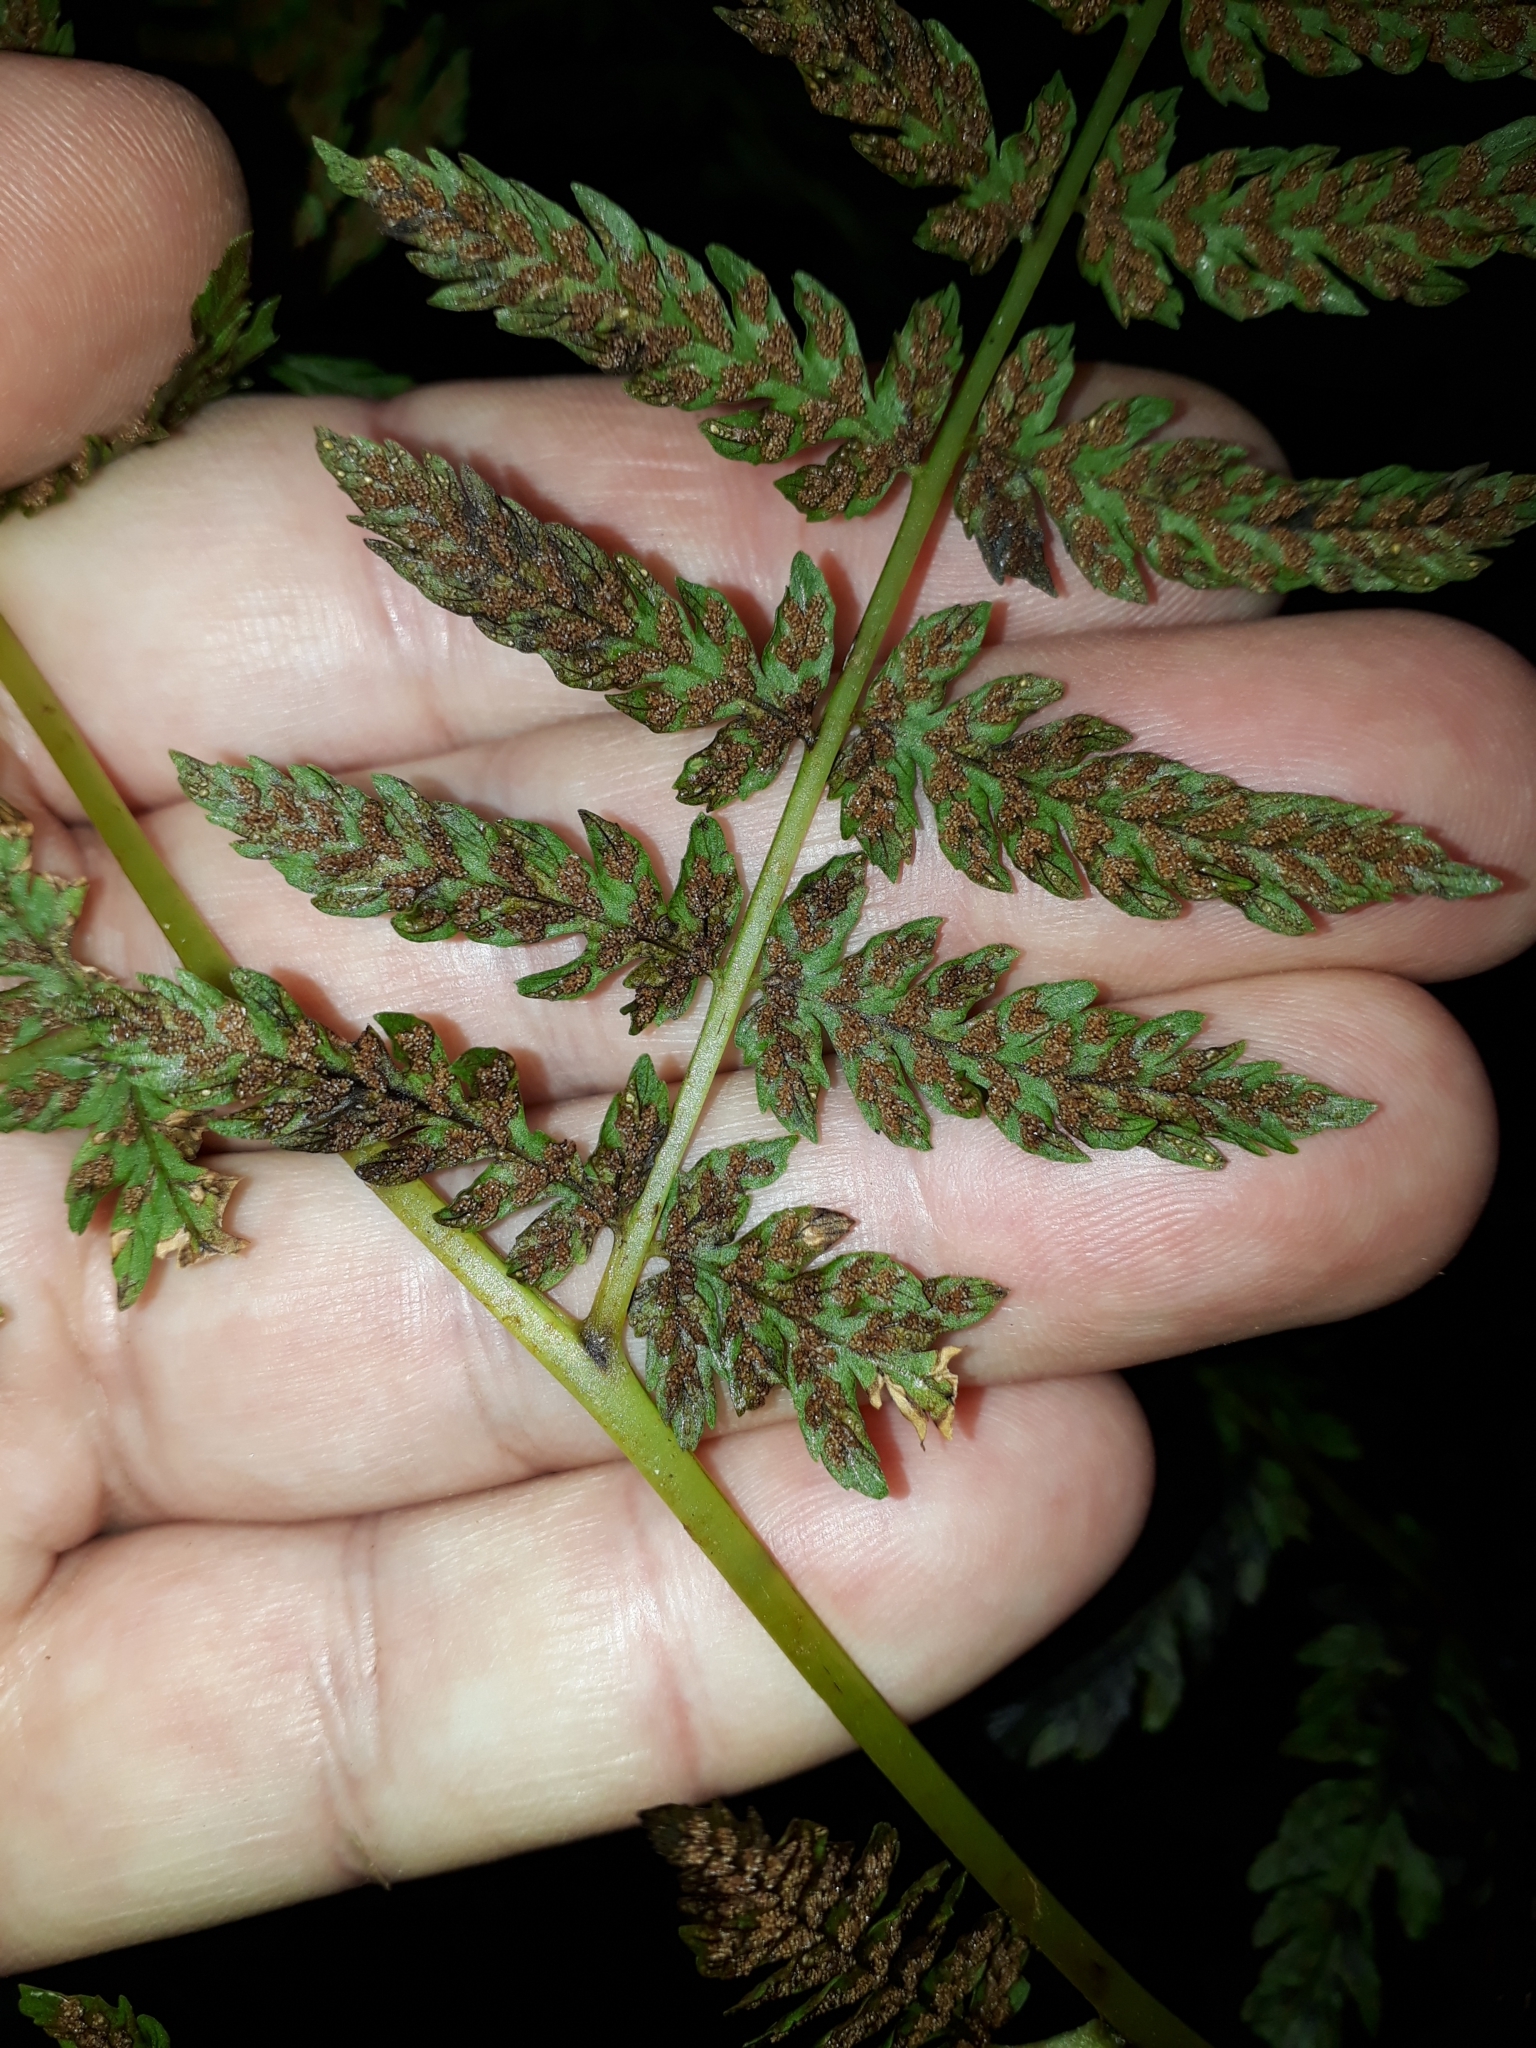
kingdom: Plantae
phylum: Tracheophyta
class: Polypodiopsida
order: Polypodiales
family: Athyriaceae
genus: Diplazium
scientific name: Diplazium australe
